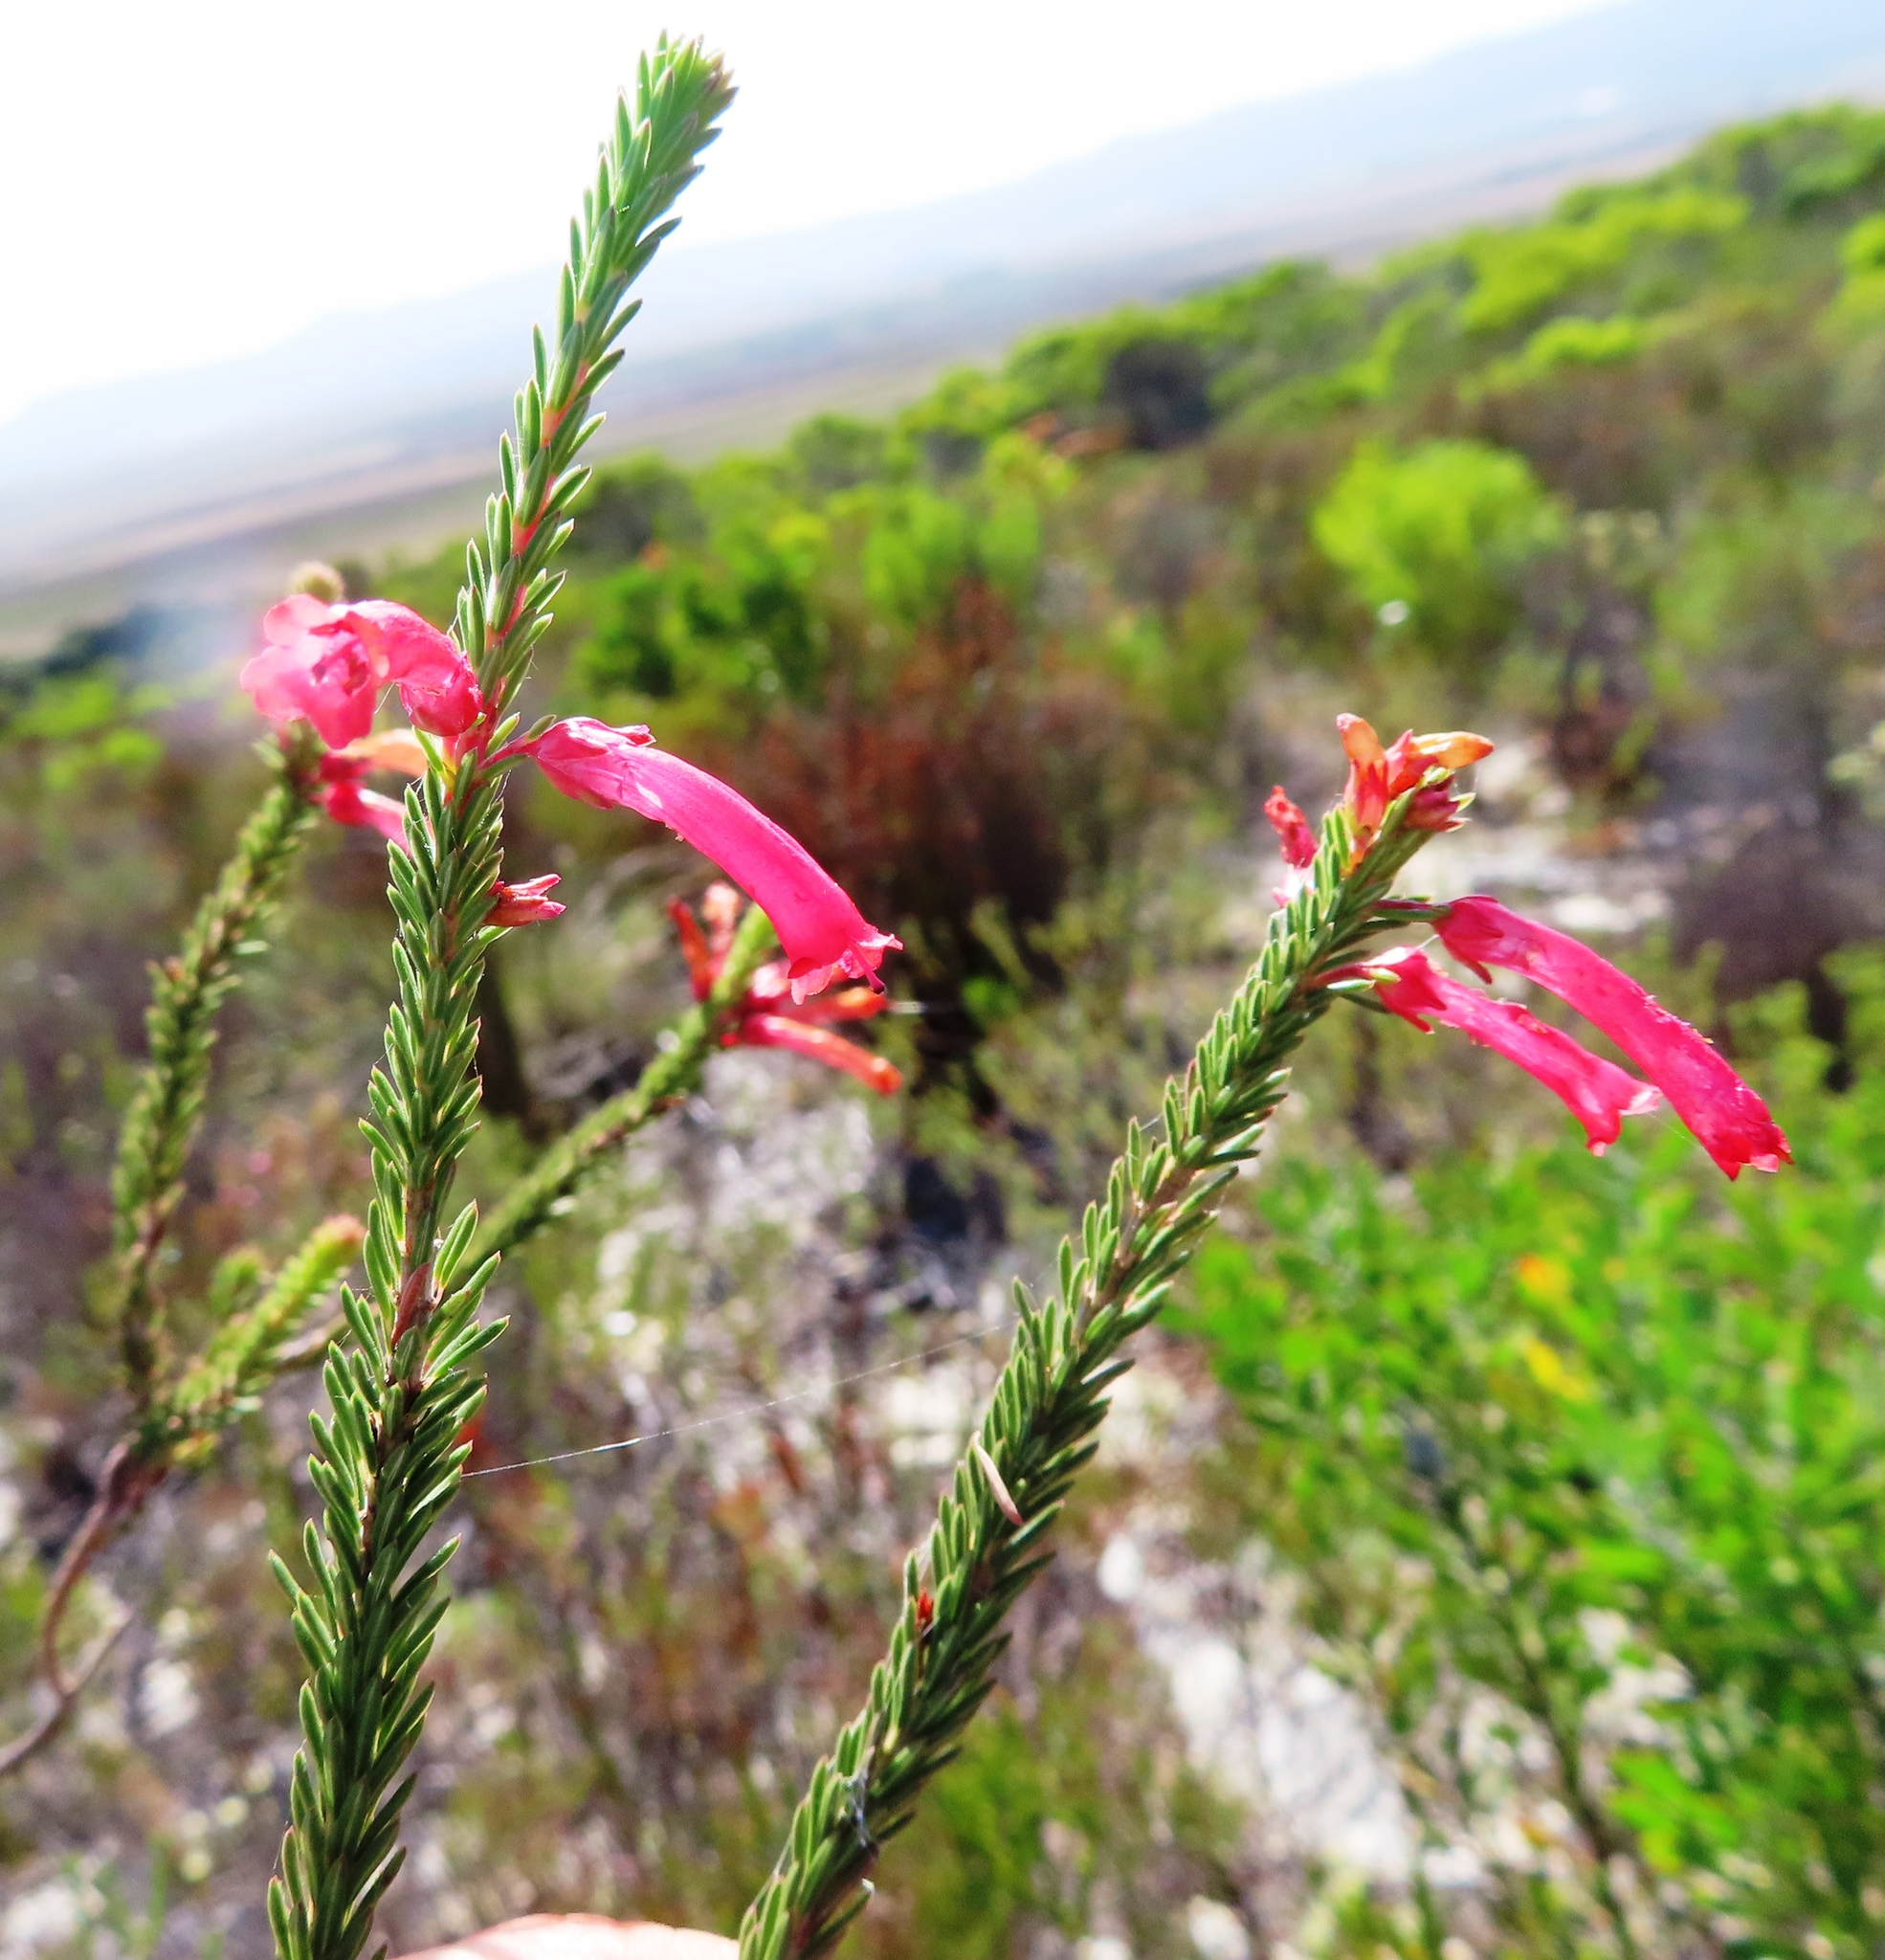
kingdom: Plantae
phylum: Tracheophyta
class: Magnoliopsida
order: Ericales
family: Ericaceae
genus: Erica
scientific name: Erica regia
